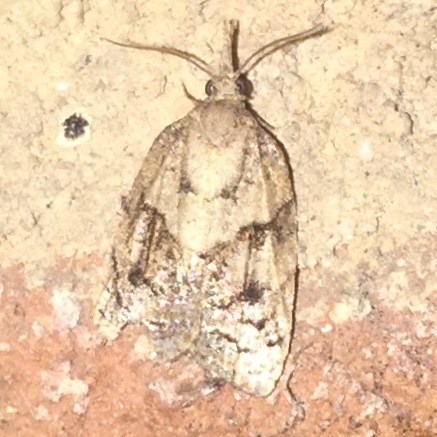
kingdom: Animalia
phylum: Arthropoda
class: Insecta
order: Lepidoptera
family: Tortricidae
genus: Platynota
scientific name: Platynota idaeusalis
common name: Tufted apple bud moth
